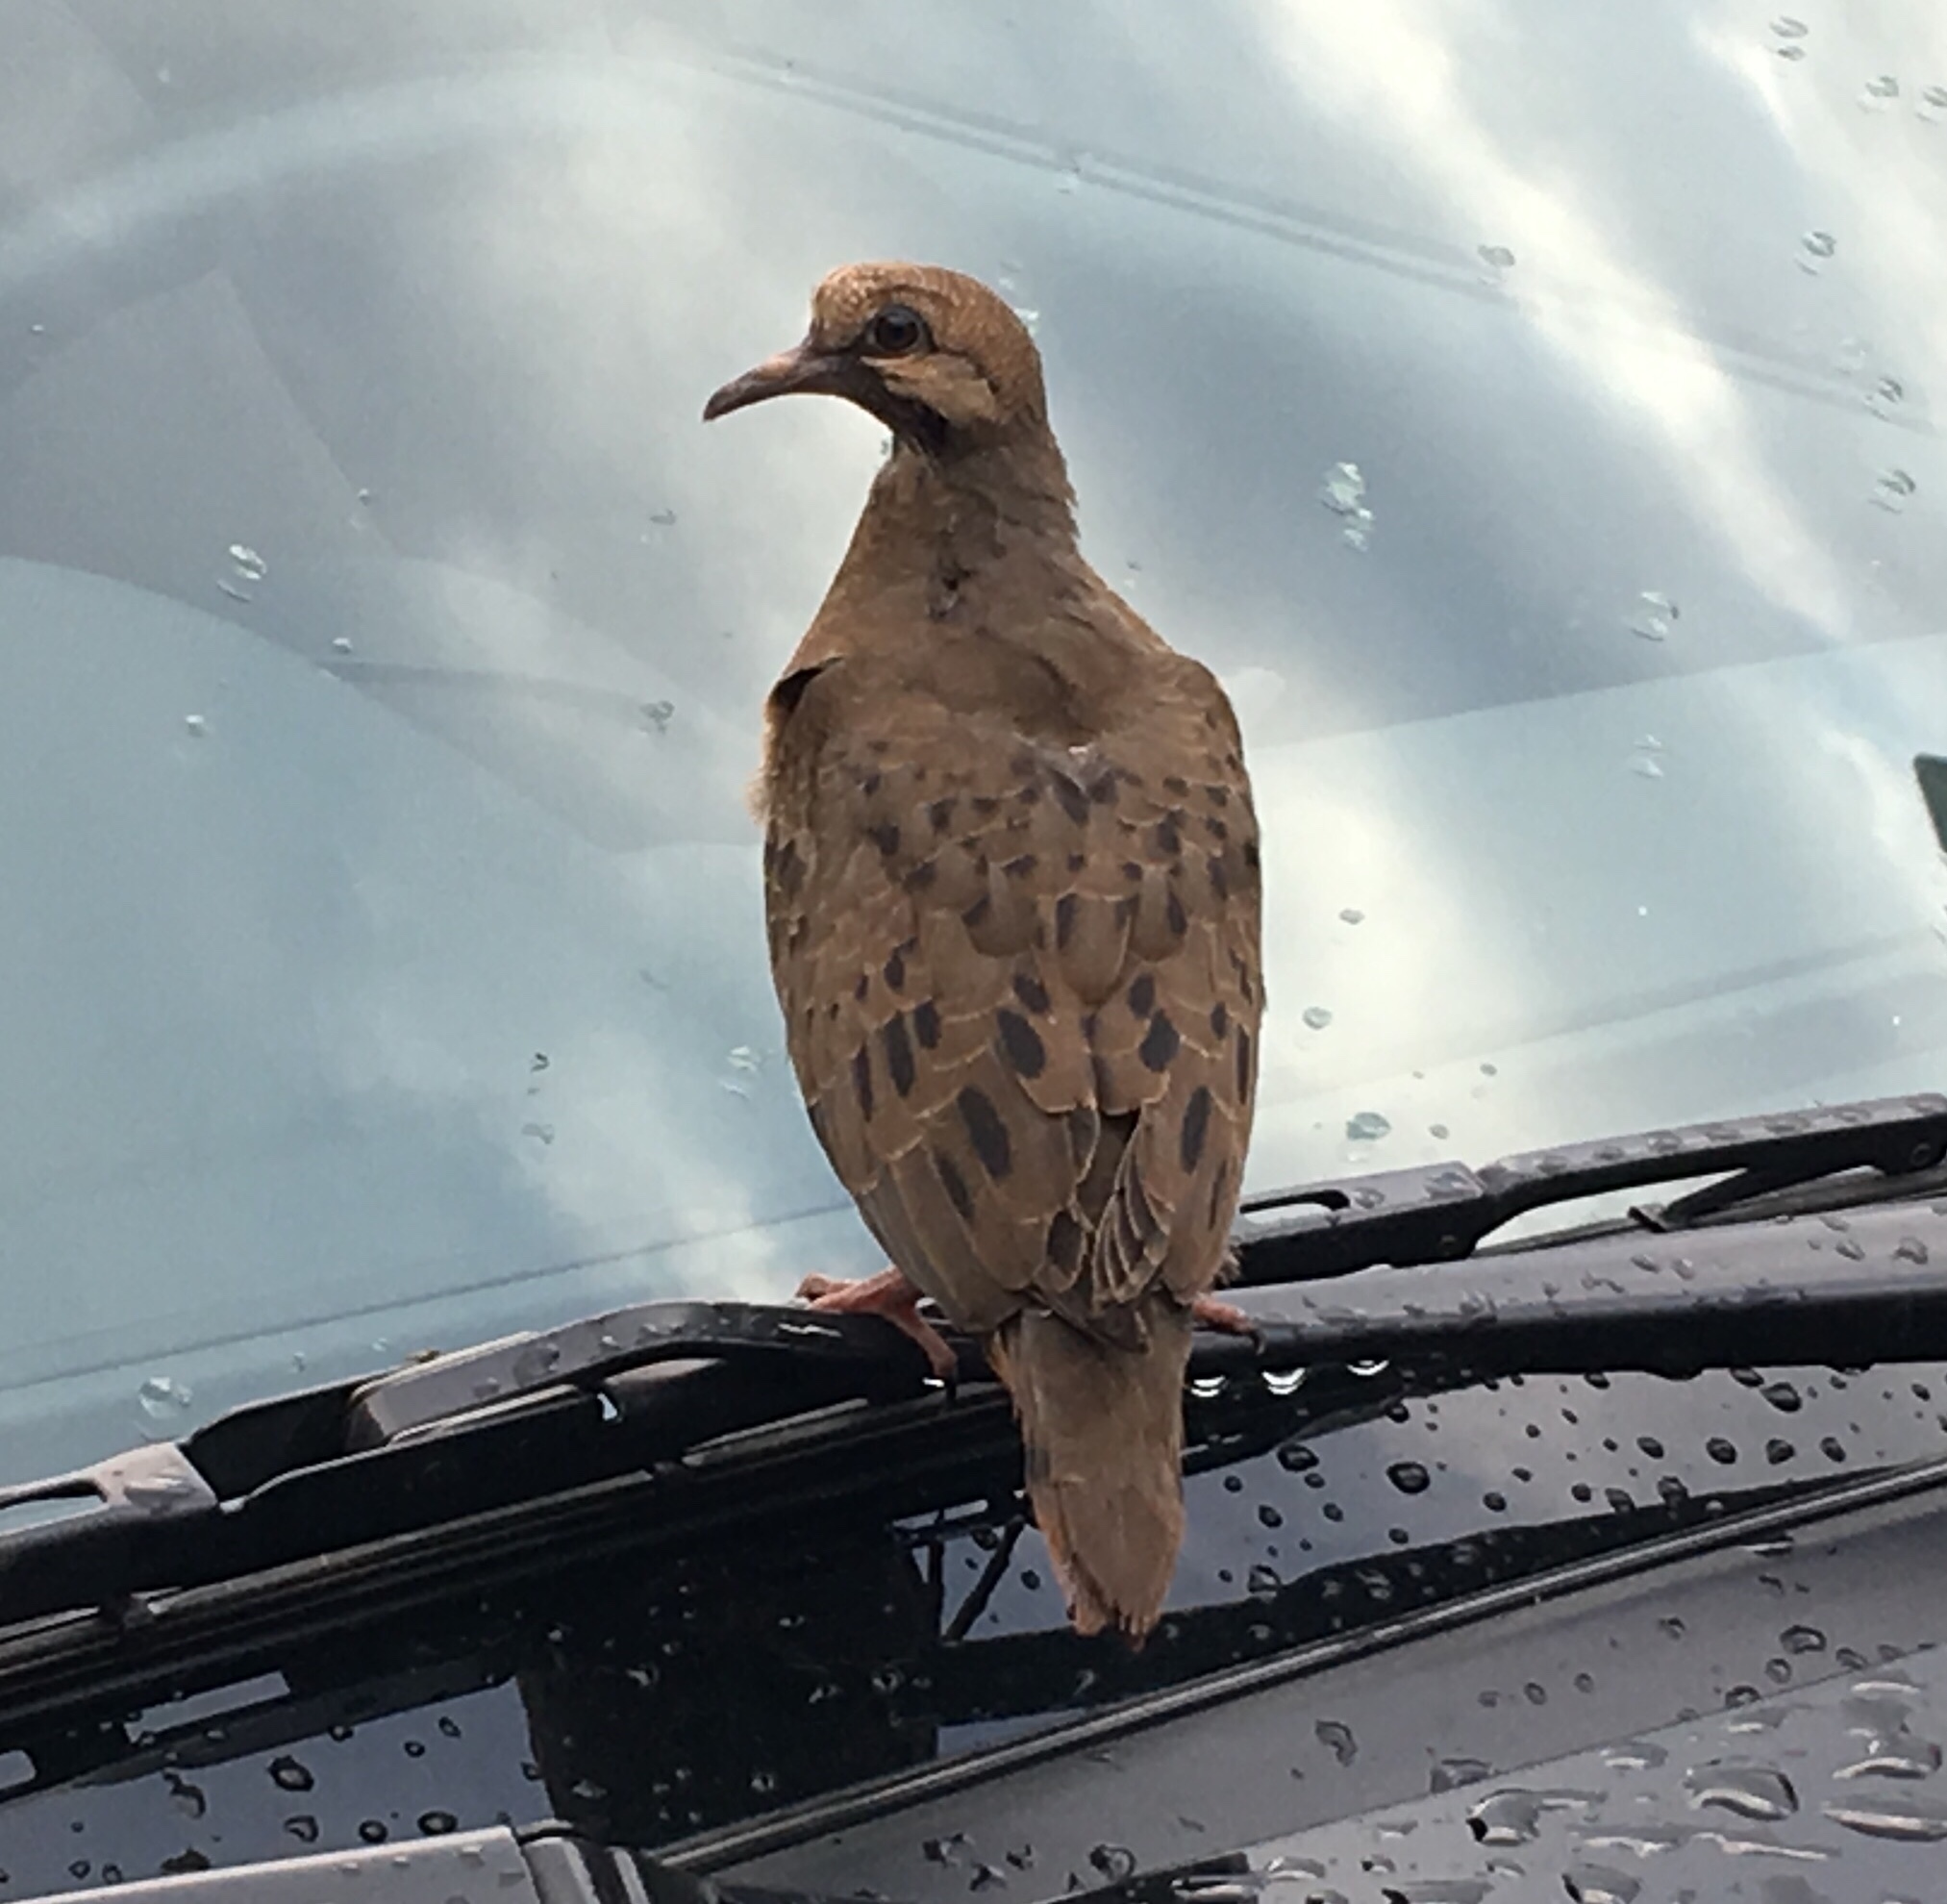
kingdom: Animalia
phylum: Chordata
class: Aves
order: Columbiformes
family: Columbidae
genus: Zenaida
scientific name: Zenaida auriculata
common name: Eared dove
